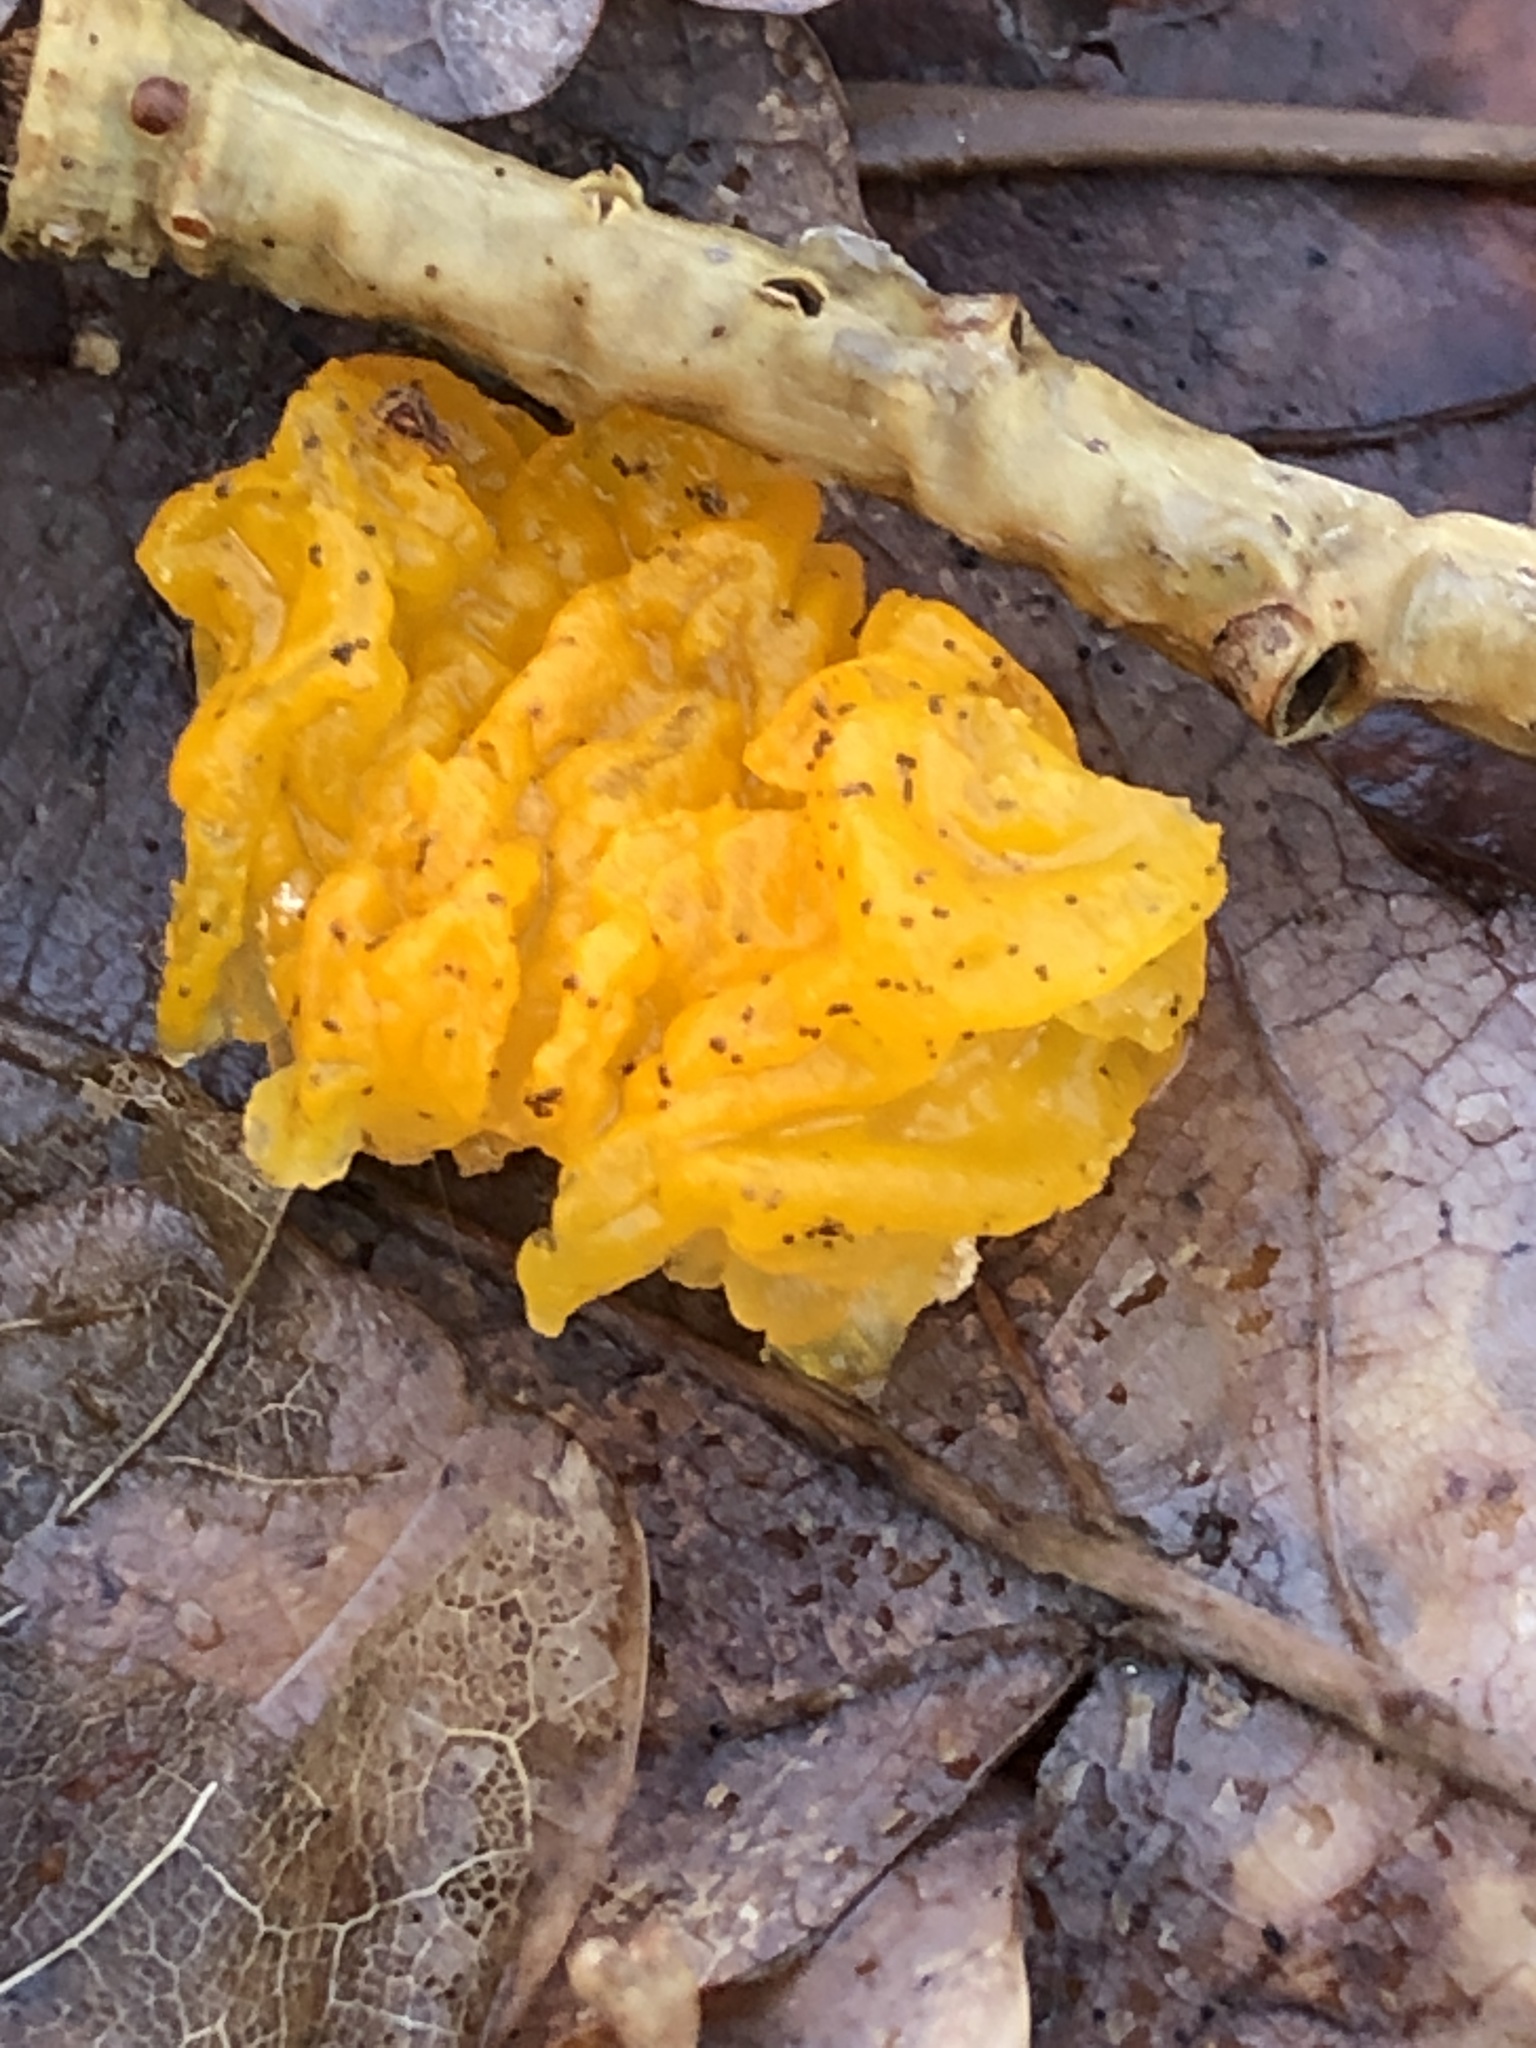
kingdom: Fungi
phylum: Basidiomycota
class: Tremellomycetes
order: Tremellales
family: Tremellaceae
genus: Tremella
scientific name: Tremella mesenterica
